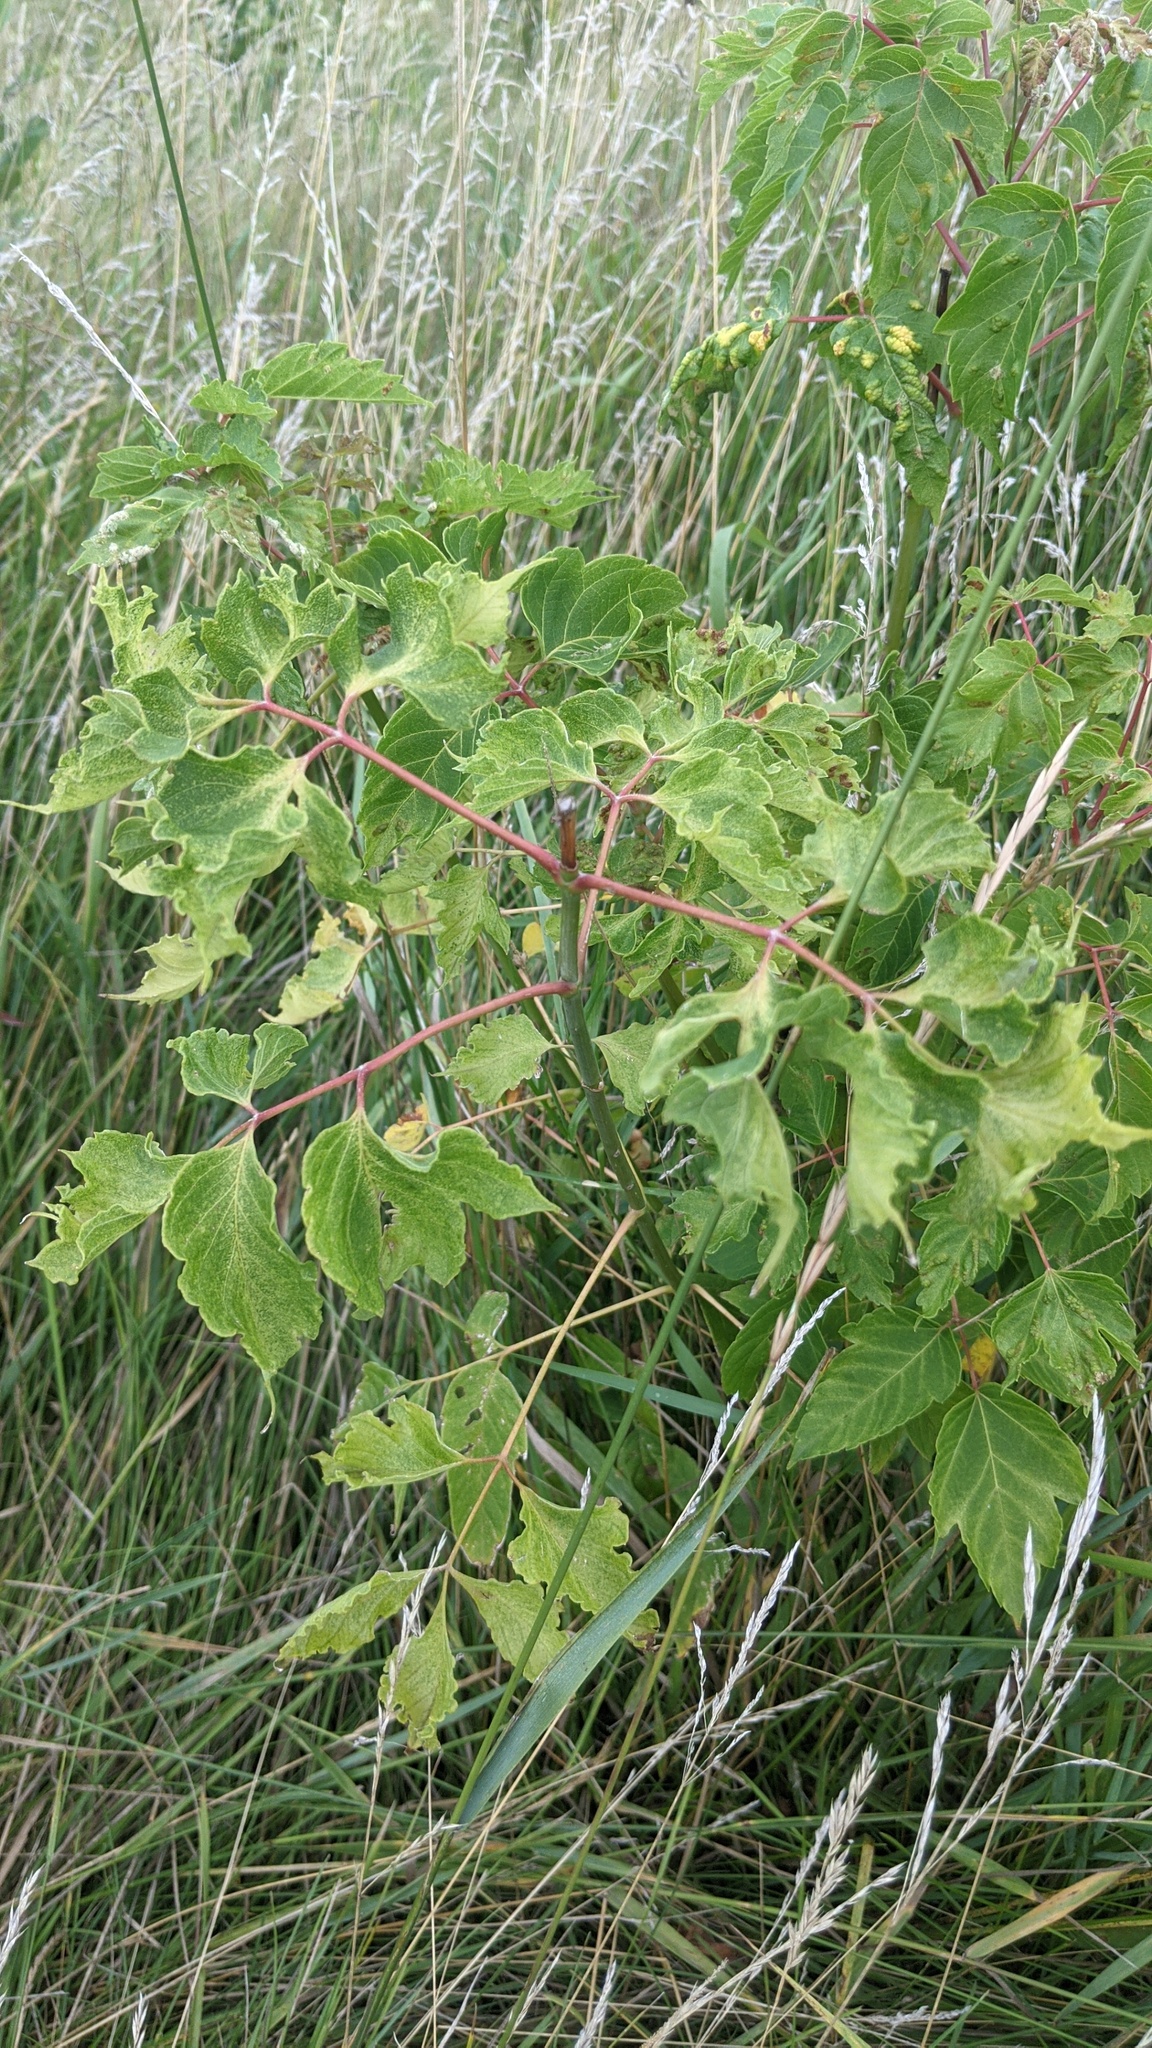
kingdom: Plantae
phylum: Tracheophyta
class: Magnoliopsida
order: Sapindales
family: Sapindaceae
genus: Acer
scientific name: Acer negundo
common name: Ashleaf maple
